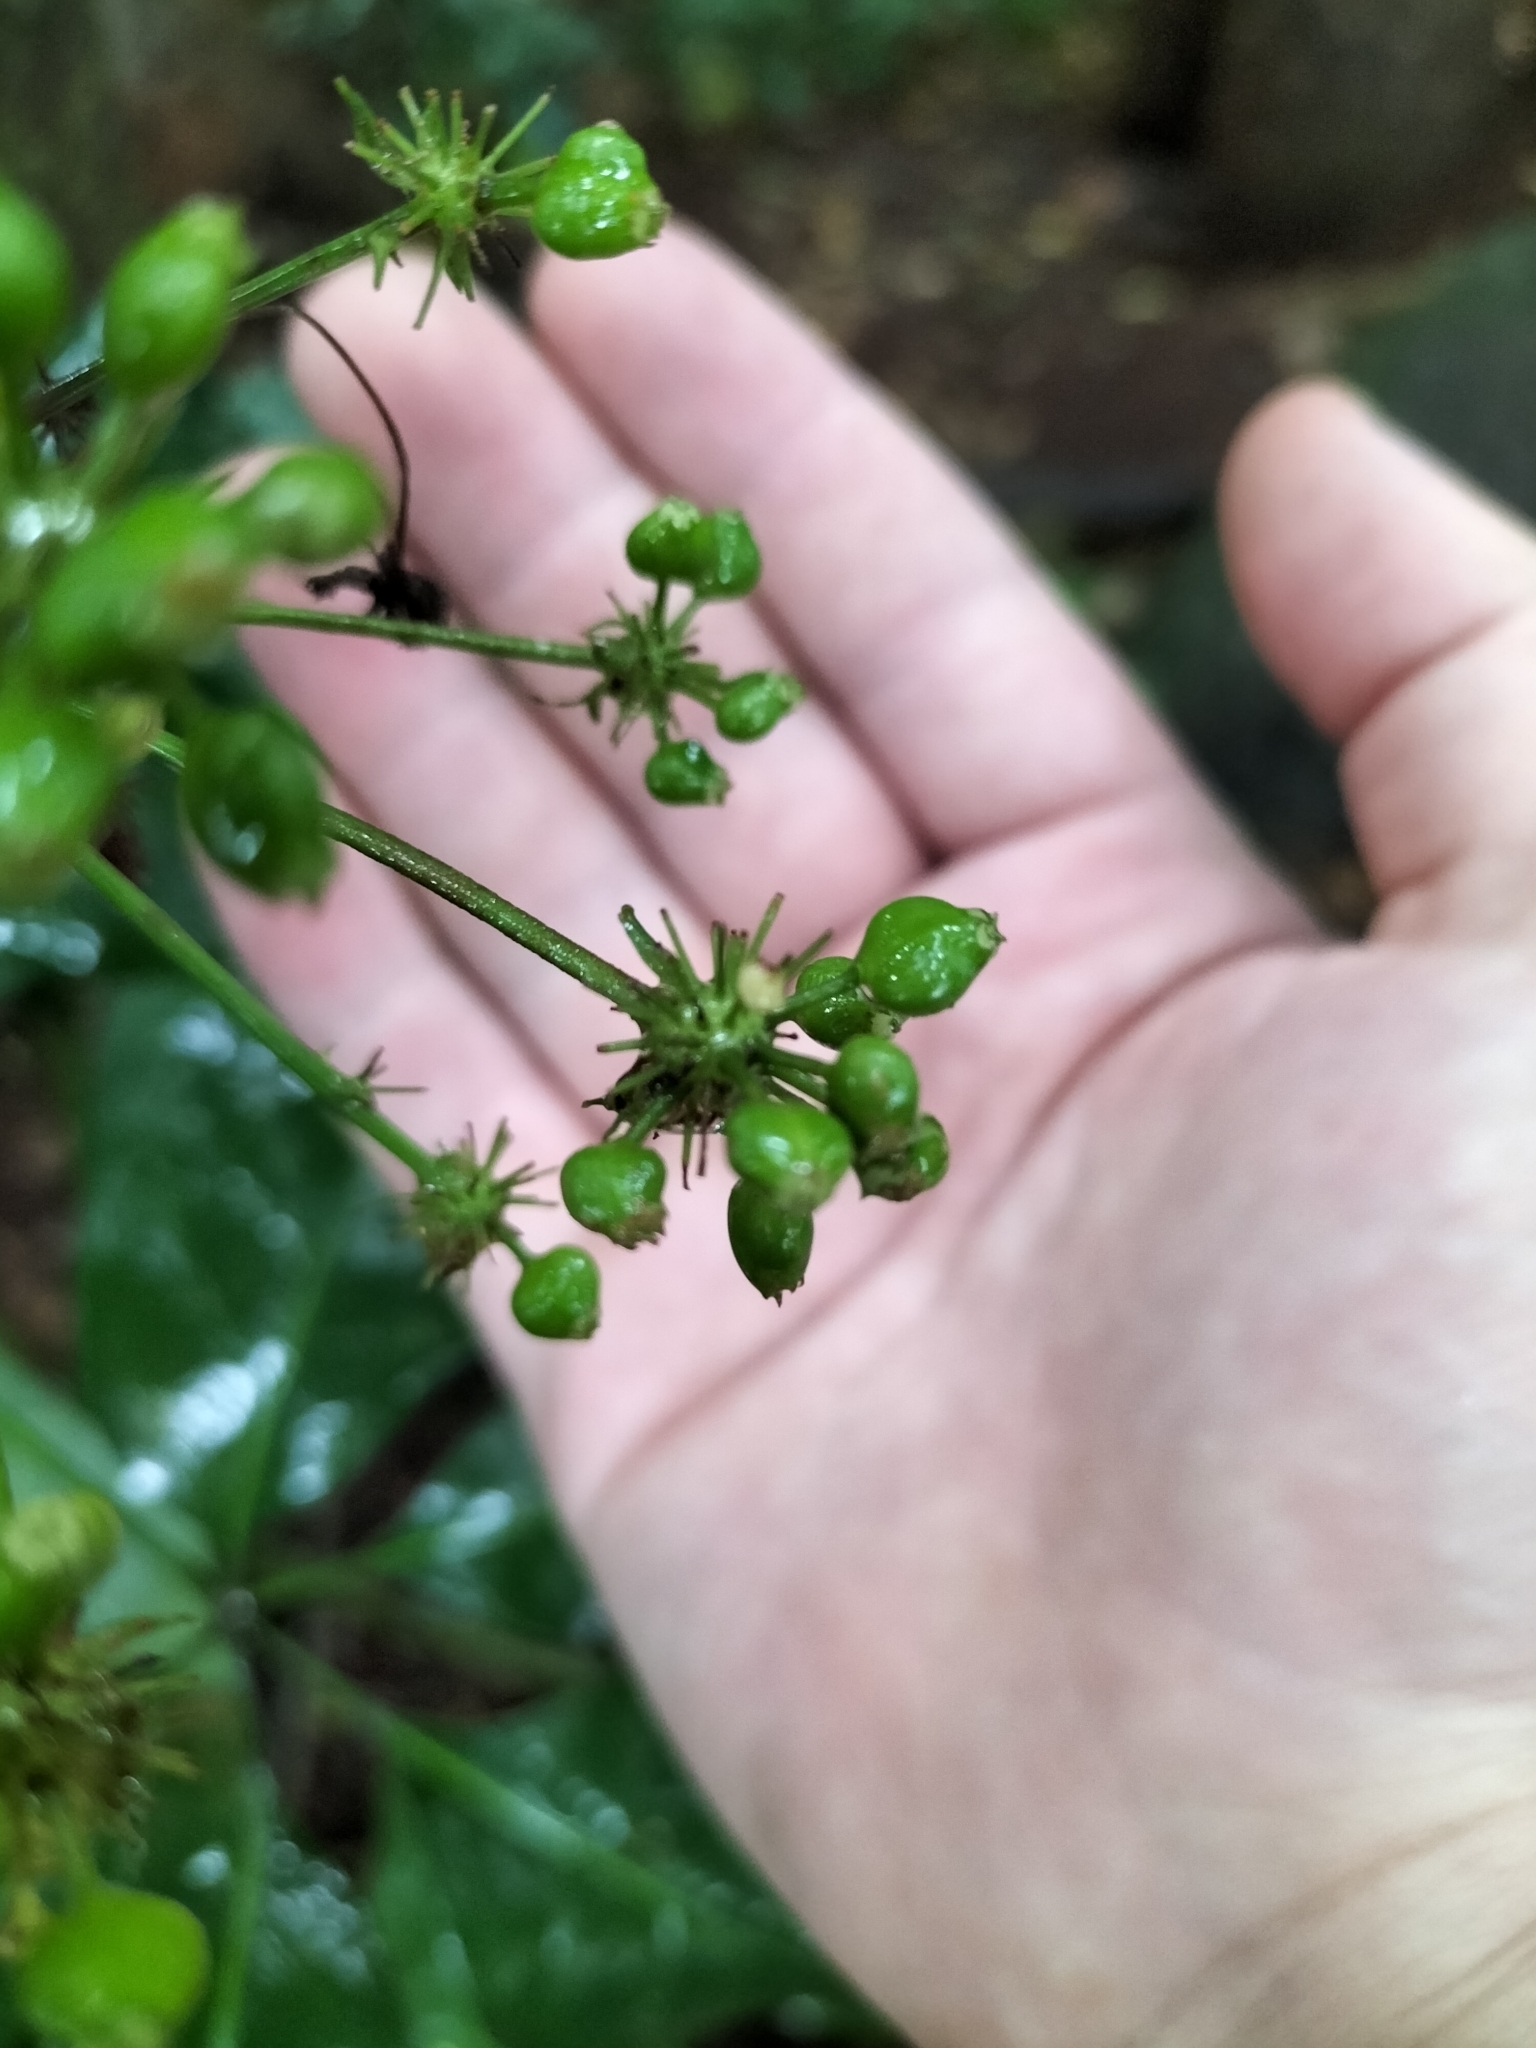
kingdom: Plantae
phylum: Tracheophyta
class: Magnoliopsida
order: Apiales
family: Apiaceae
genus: Mackinlaya
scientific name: Mackinlaya macrosciadea
